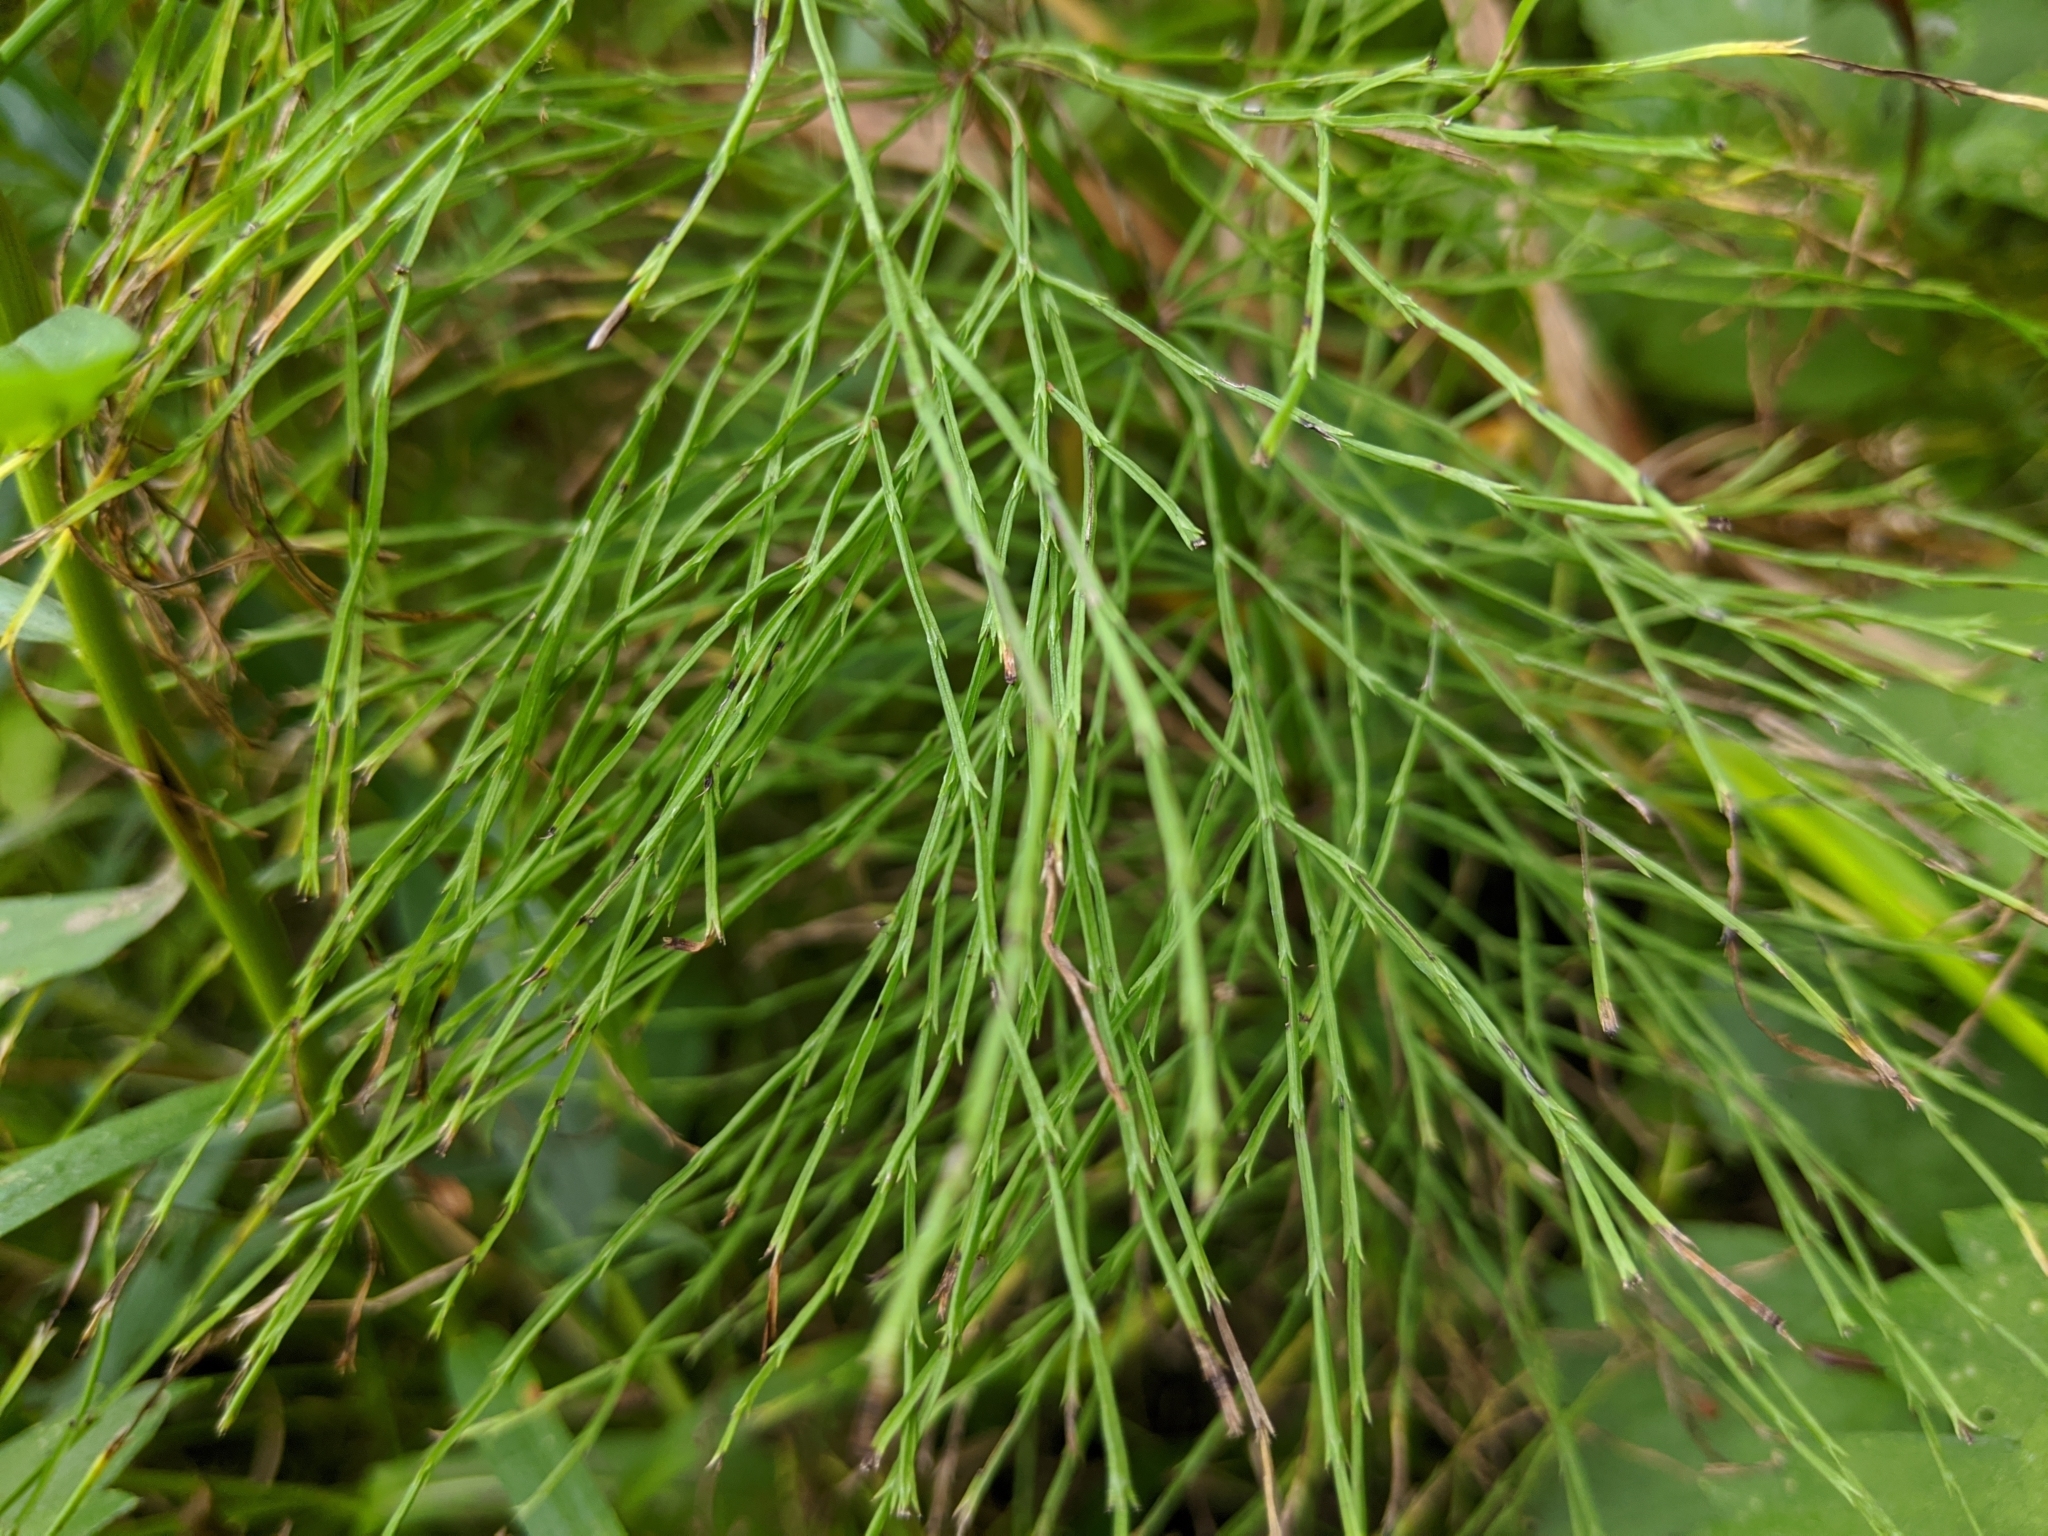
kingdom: Plantae
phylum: Tracheophyta
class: Polypodiopsida
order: Equisetales
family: Equisetaceae
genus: Equisetum
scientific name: Equisetum sylvaticum
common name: Wood horsetail
